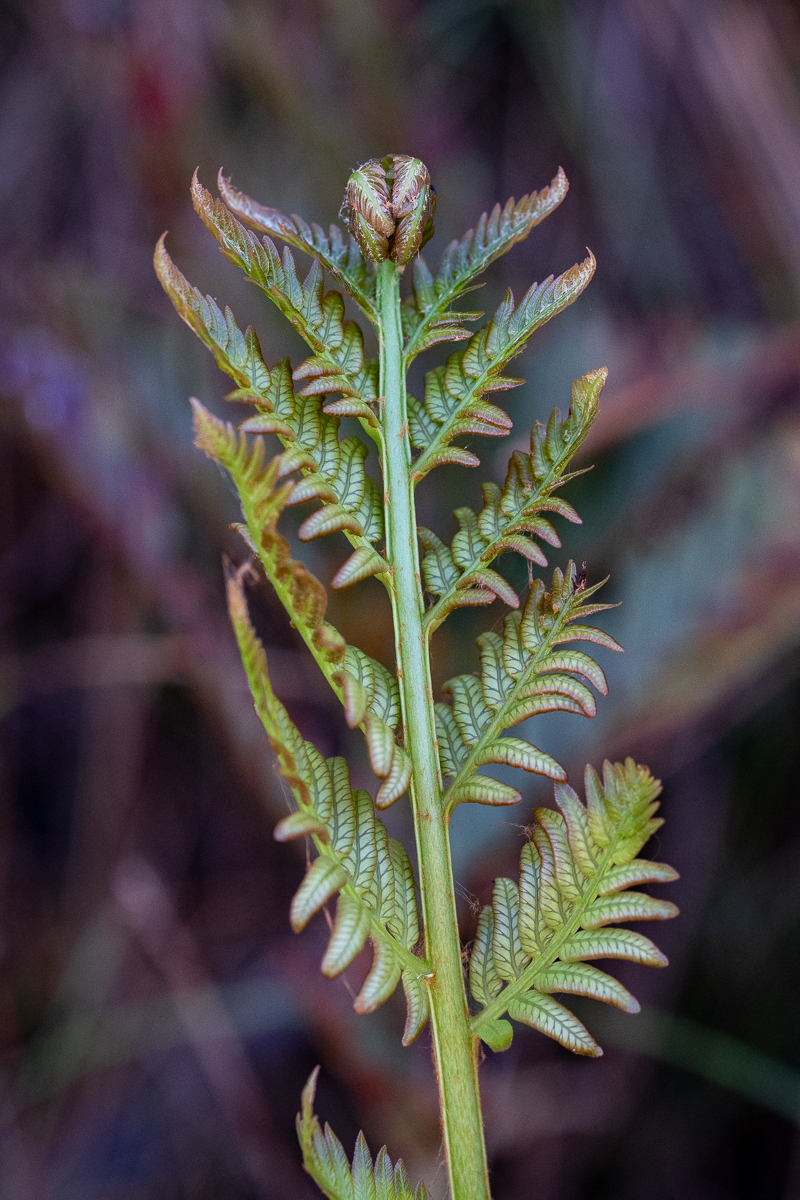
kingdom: Plantae
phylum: Tracheophyta
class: Polypodiopsida
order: Osmundales
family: Osmundaceae
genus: Todea
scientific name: Todea barbara
